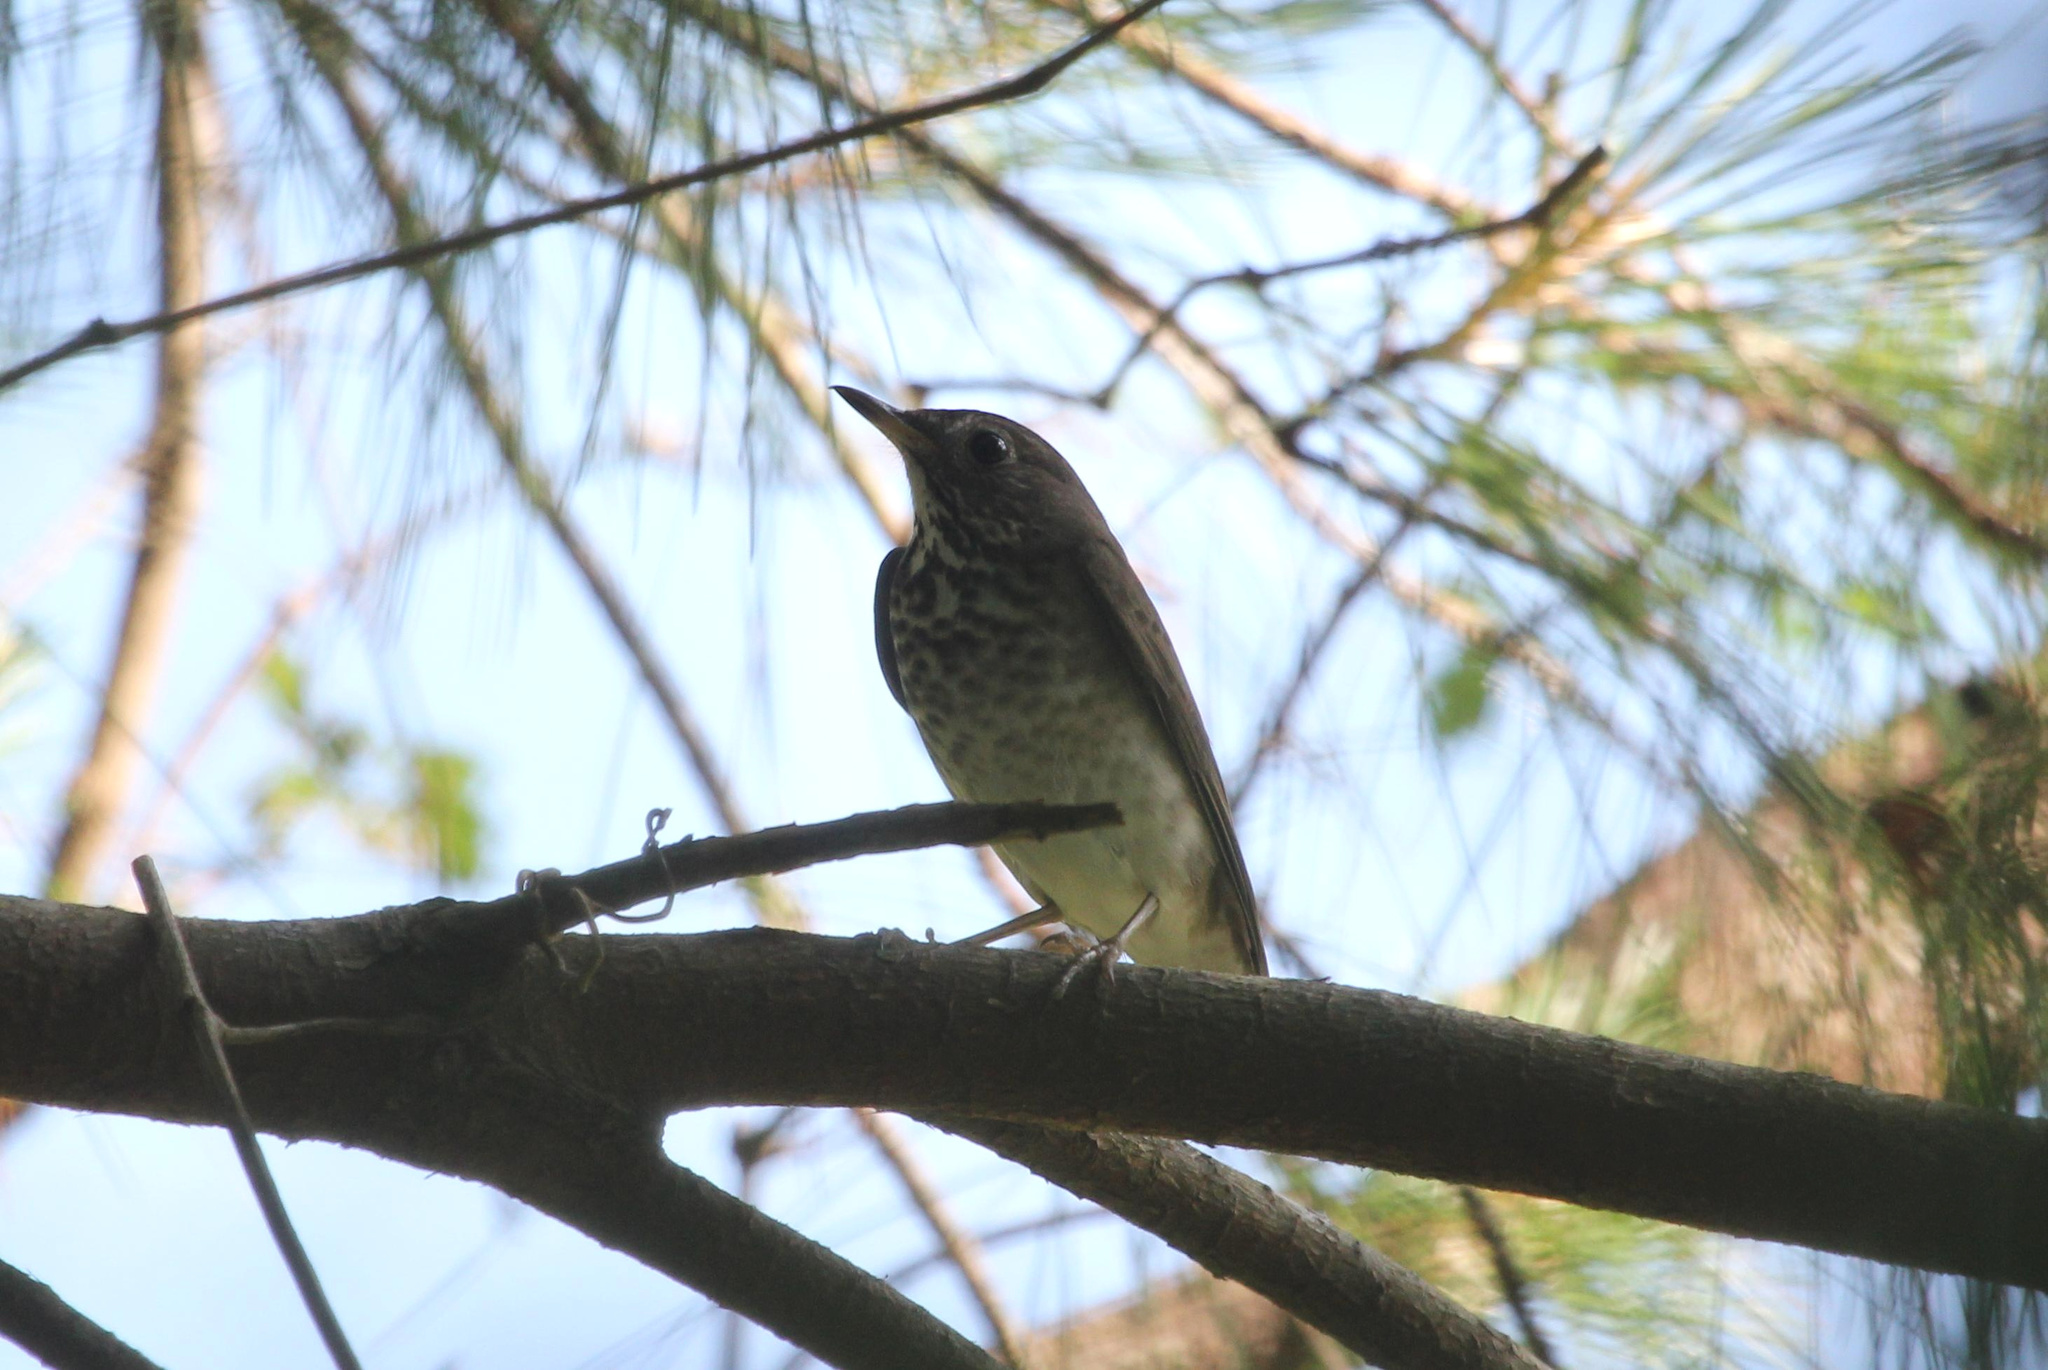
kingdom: Animalia
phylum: Chordata
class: Aves
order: Passeriformes
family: Turdidae
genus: Catharus
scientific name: Catharus minimus
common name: Grey-cheeked thrush
